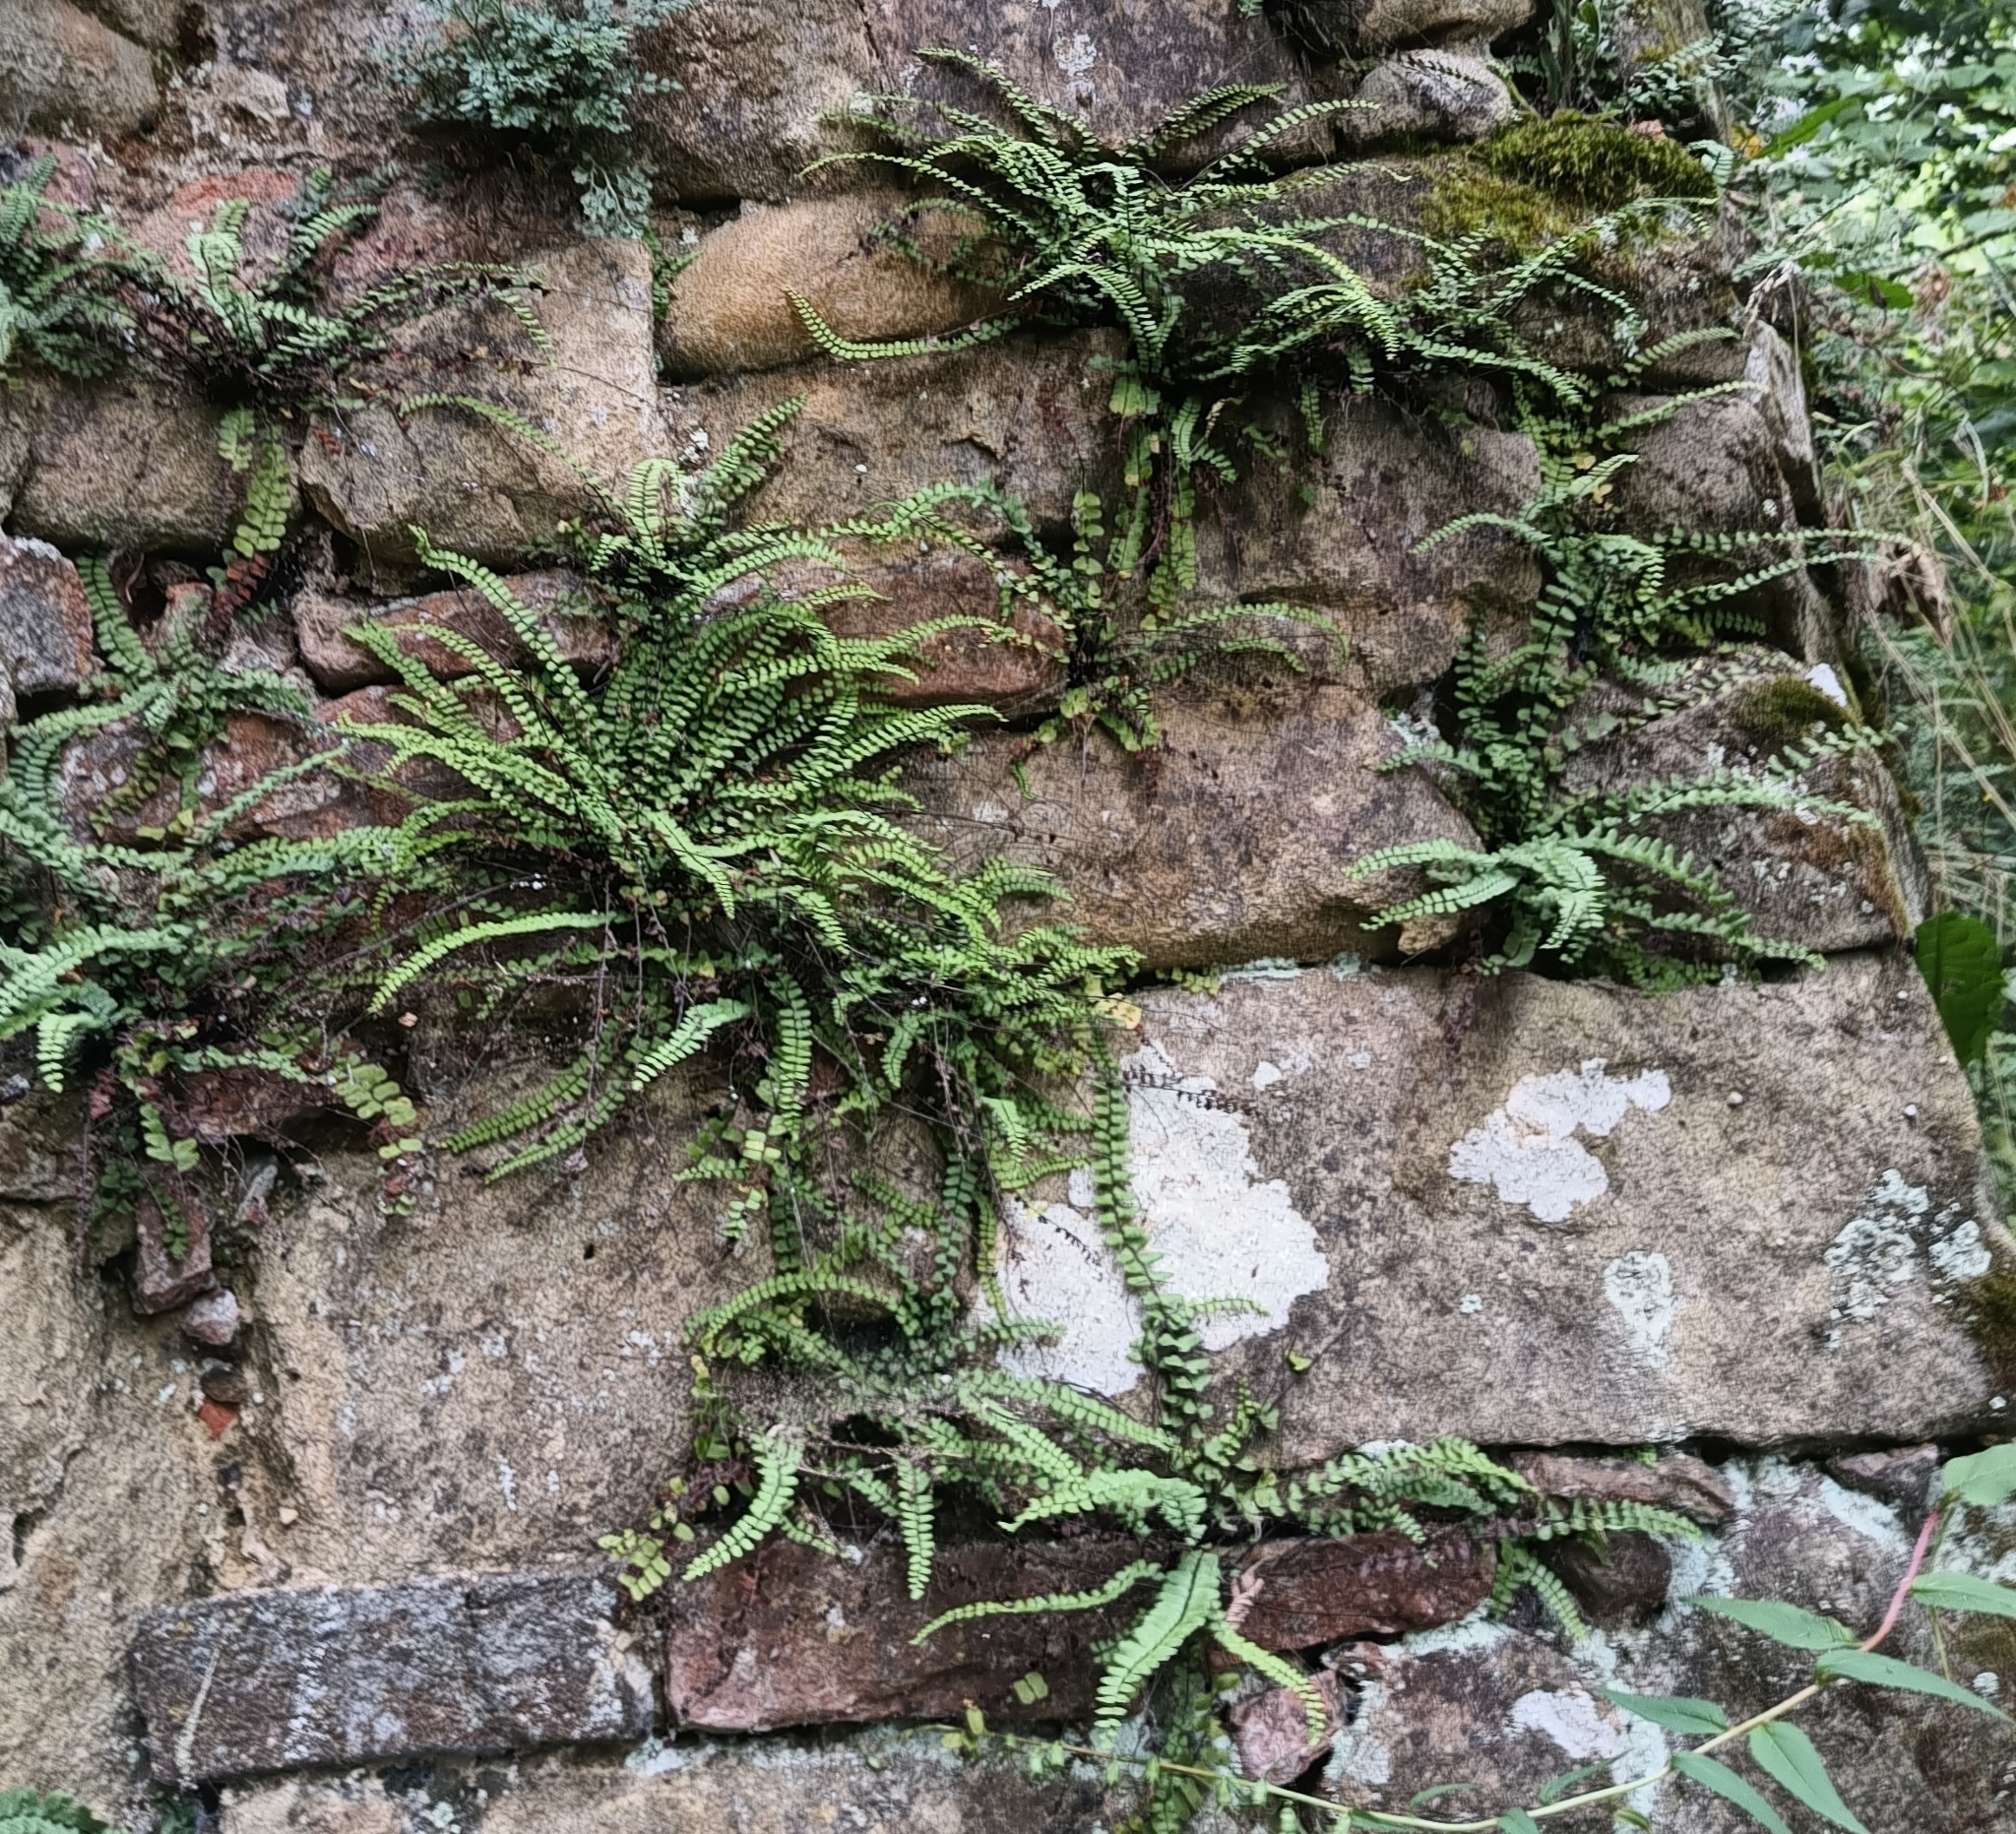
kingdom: Plantae
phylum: Tracheophyta
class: Polypodiopsida
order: Polypodiales
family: Aspleniaceae
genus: Asplenium
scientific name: Asplenium trichomanes
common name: Maidenhair spleenwort
